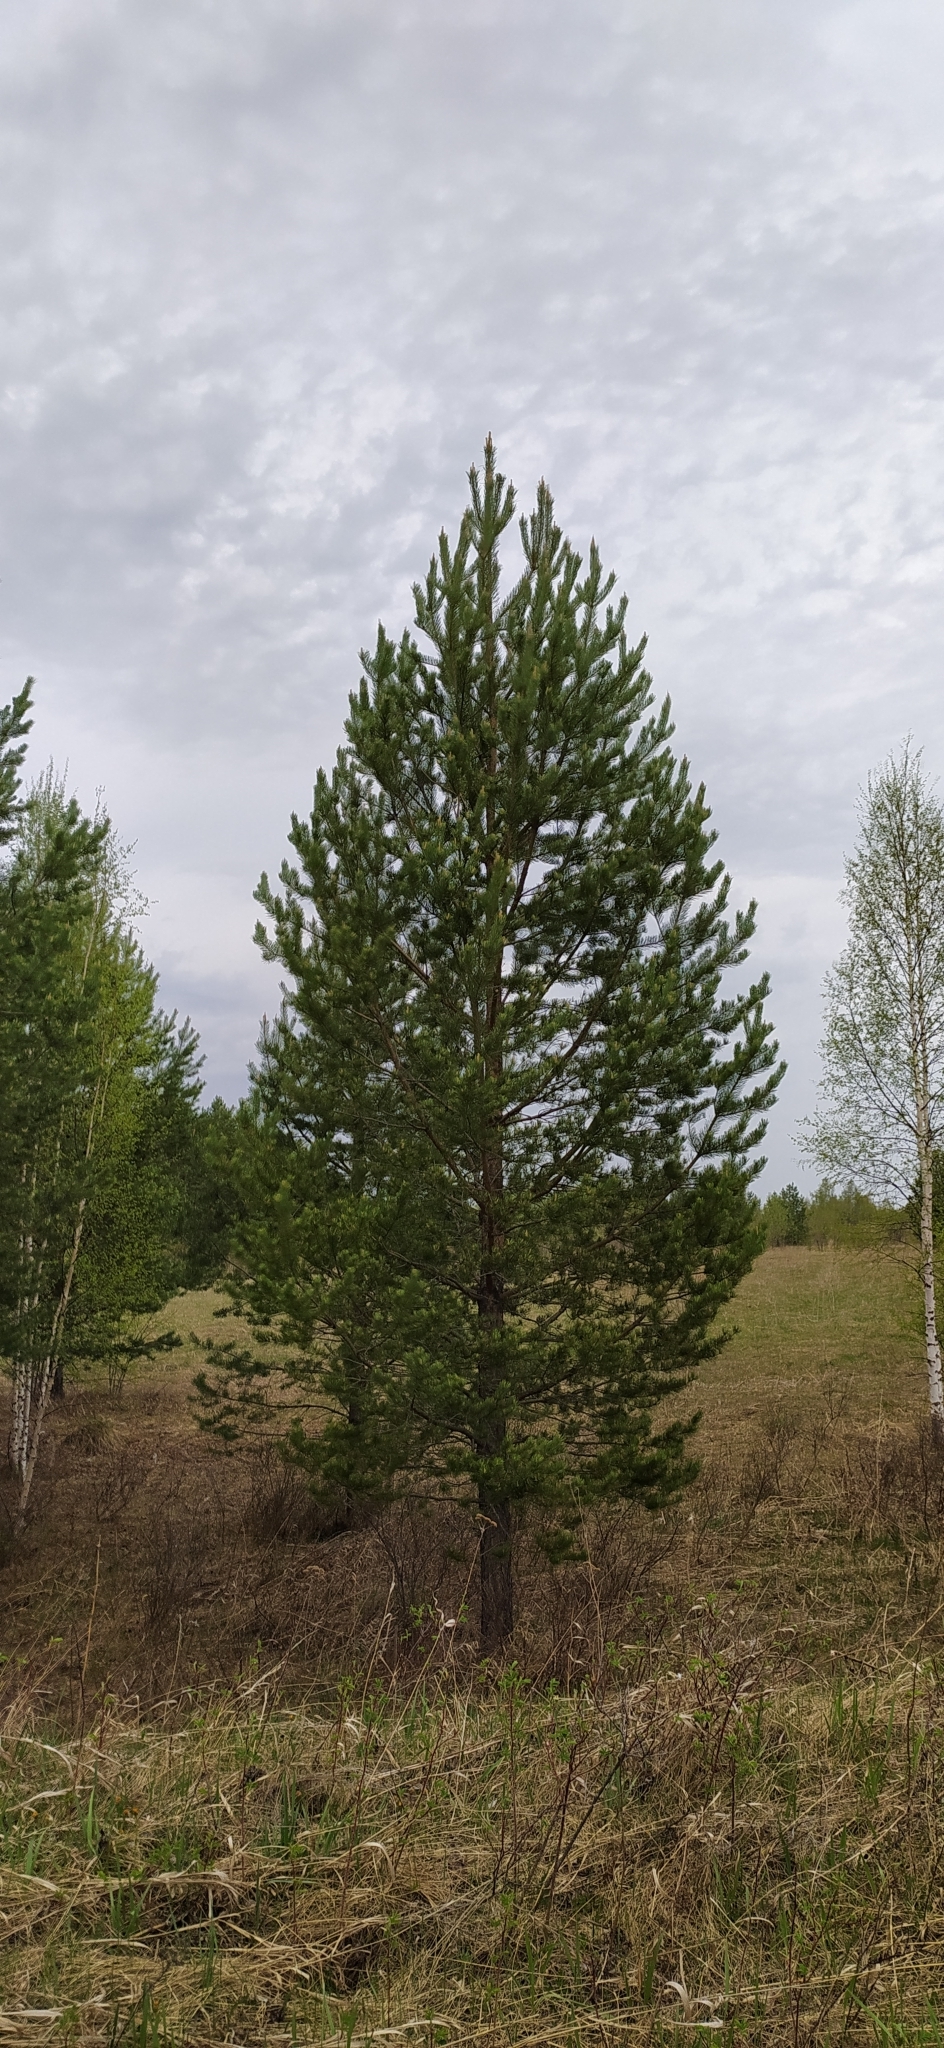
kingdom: Plantae
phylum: Tracheophyta
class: Pinopsida
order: Pinales
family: Pinaceae
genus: Pinus
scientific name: Pinus sylvestris
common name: Scots pine
